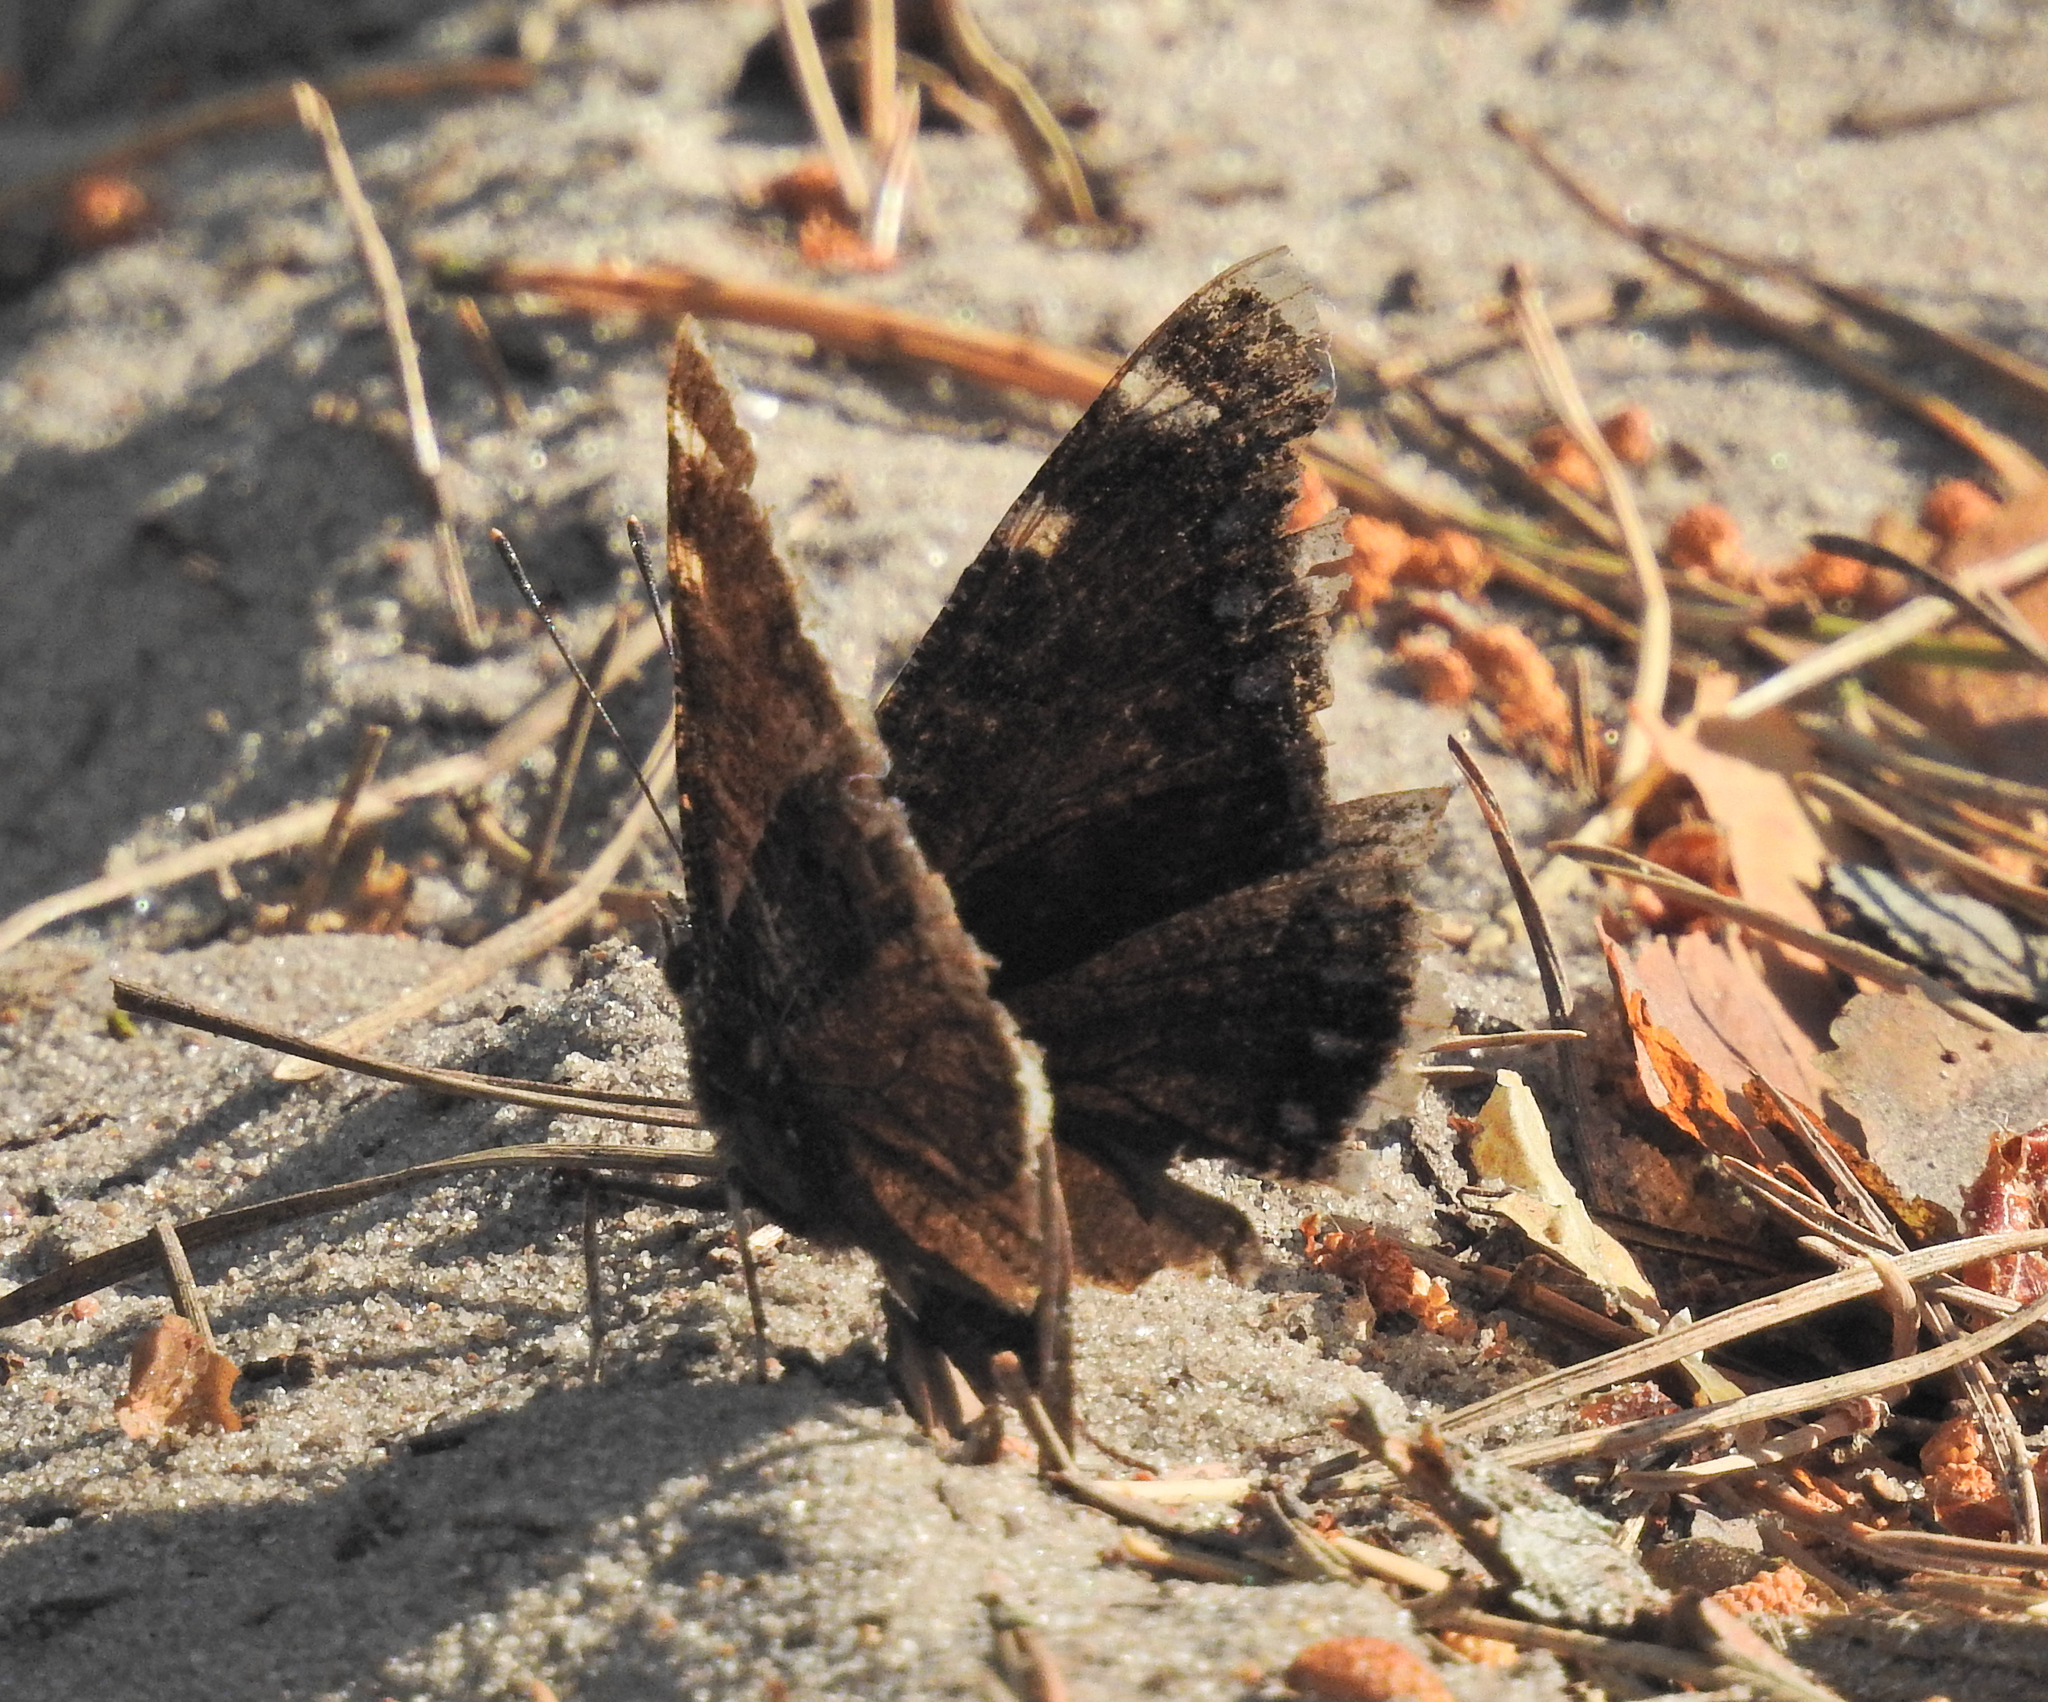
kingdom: Animalia
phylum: Arthropoda
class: Insecta
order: Lepidoptera
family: Nymphalidae
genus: Nymphalis
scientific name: Nymphalis antiopa
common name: Camberwell beauty
